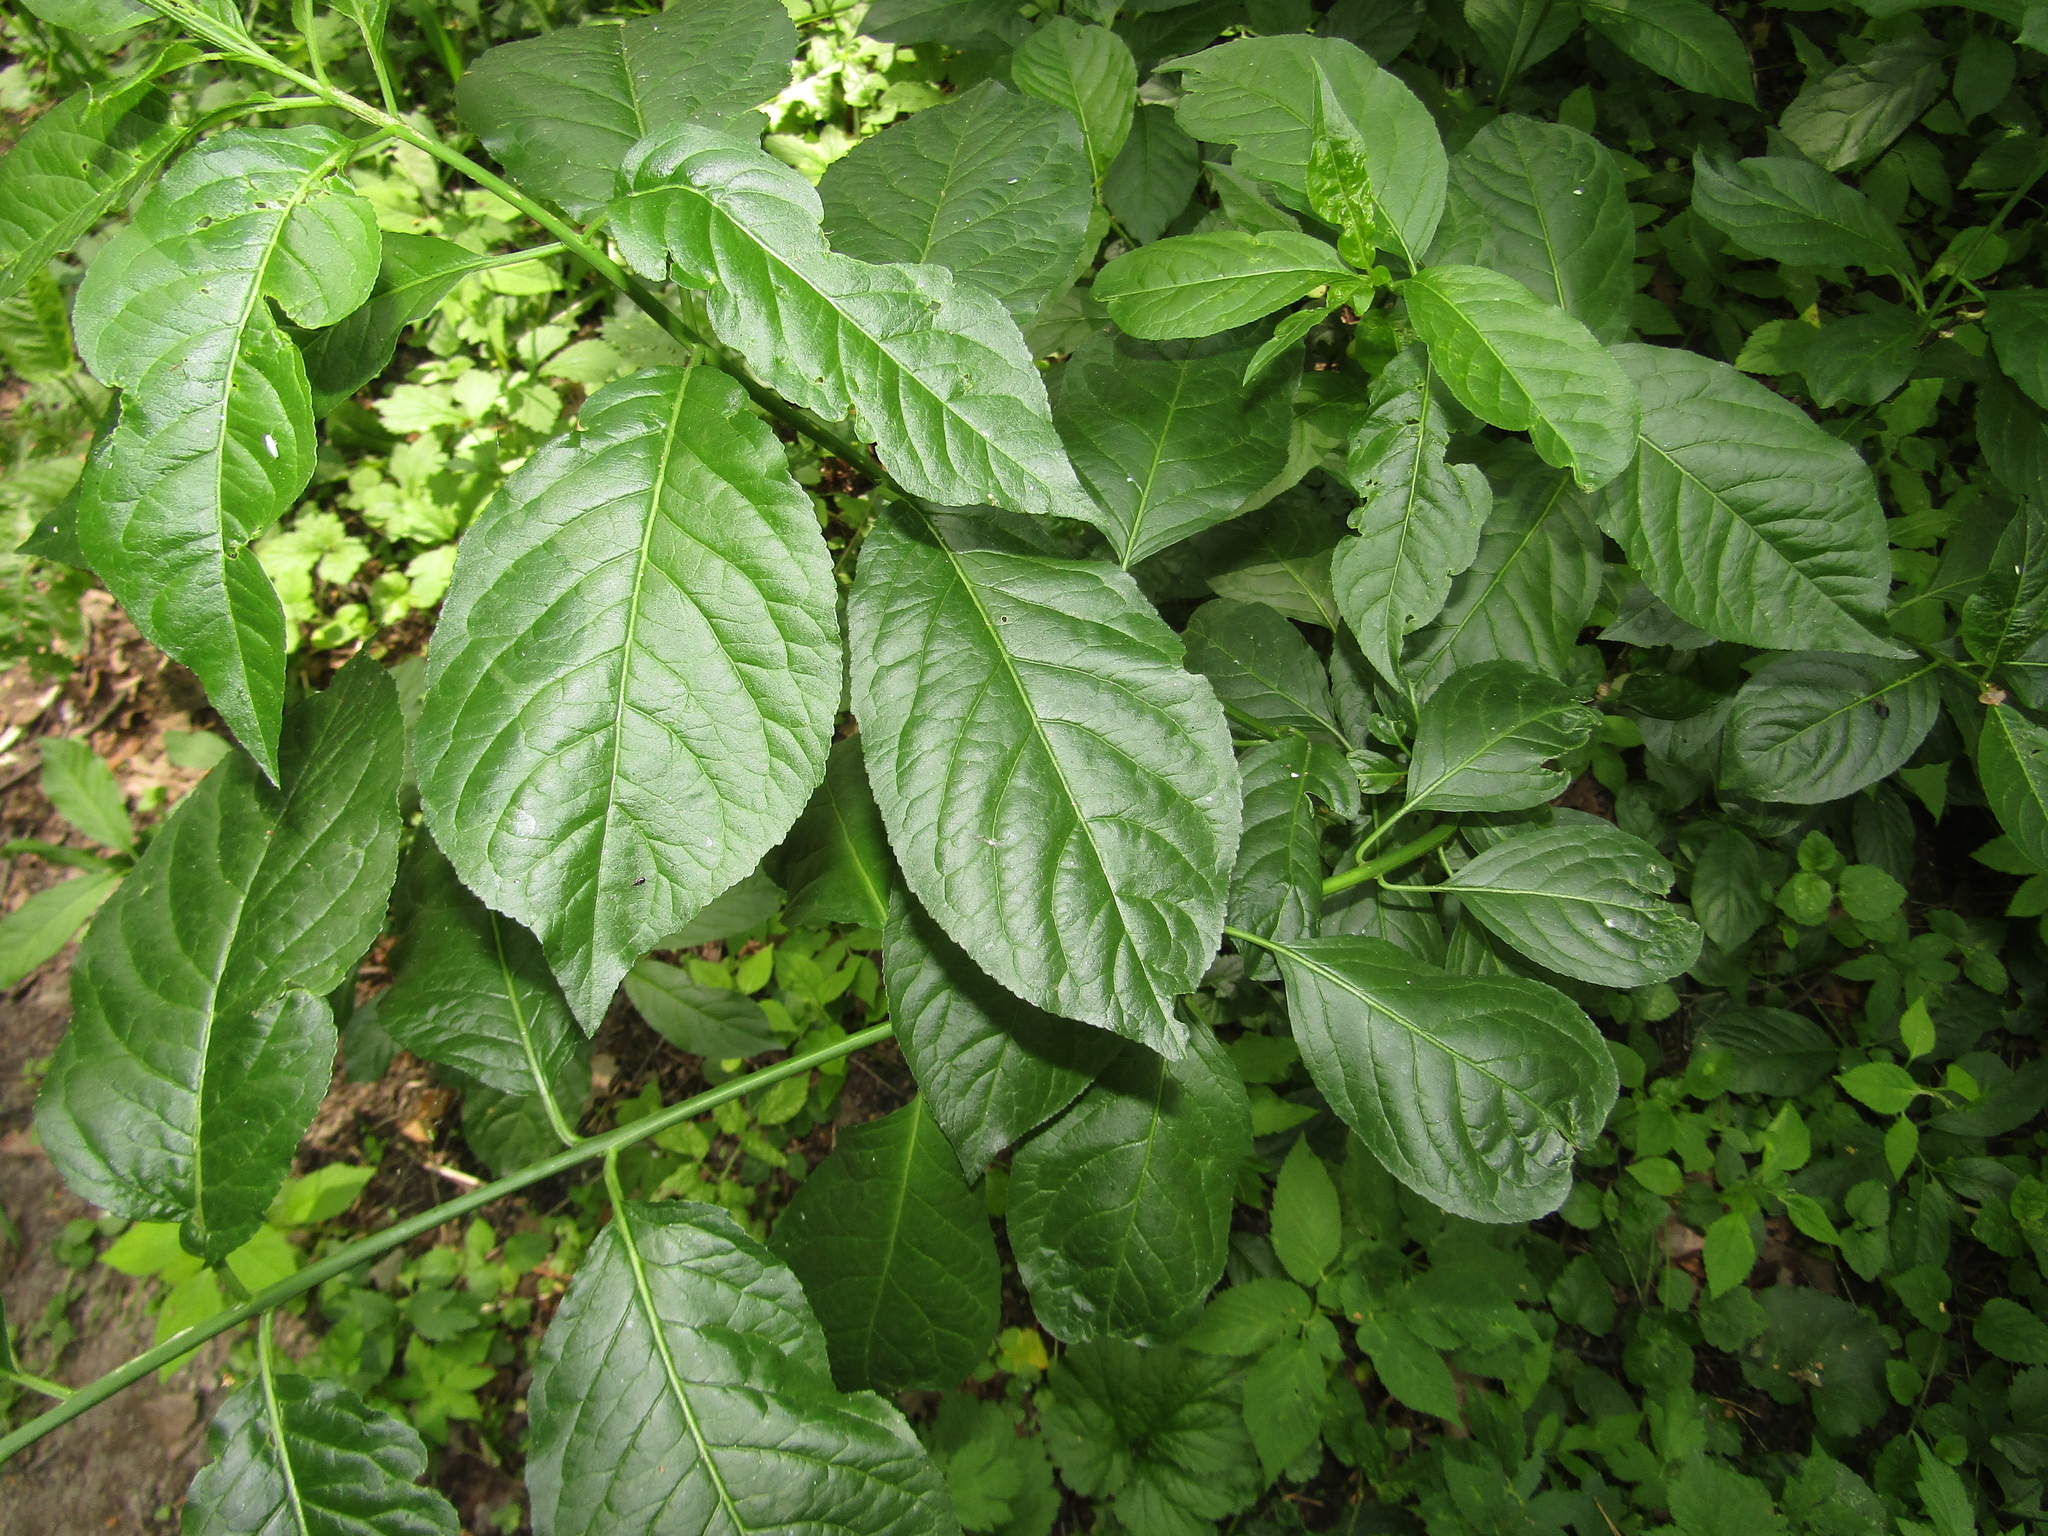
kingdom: Plantae
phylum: Tracheophyta
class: Magnoliopsida
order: Celastrales
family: Celastraceae
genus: Euonymus
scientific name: Euonymus europaeus
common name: Spindle
